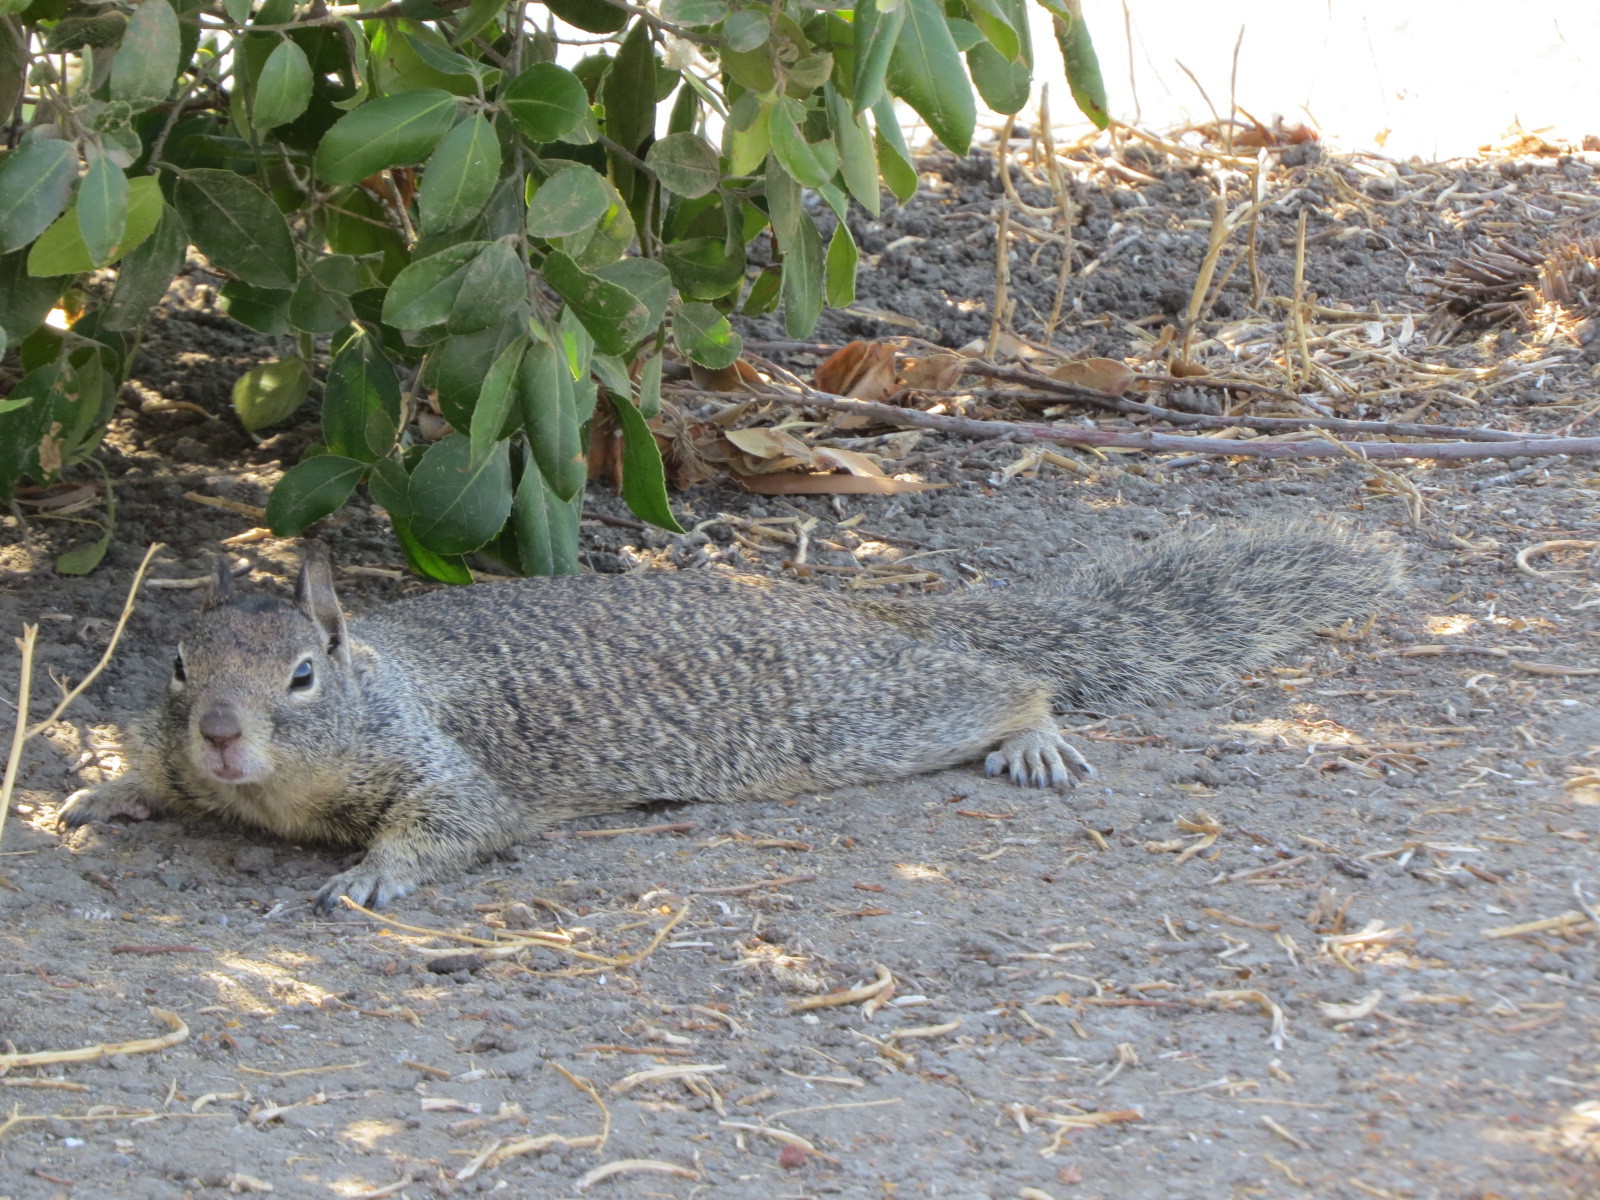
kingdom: Animalia
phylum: Chordata
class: Mammalia
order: Rodentia
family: Sciuridae
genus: Otospermophilus
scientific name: Otospermophilus beecheyi
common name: California ground squirrel
